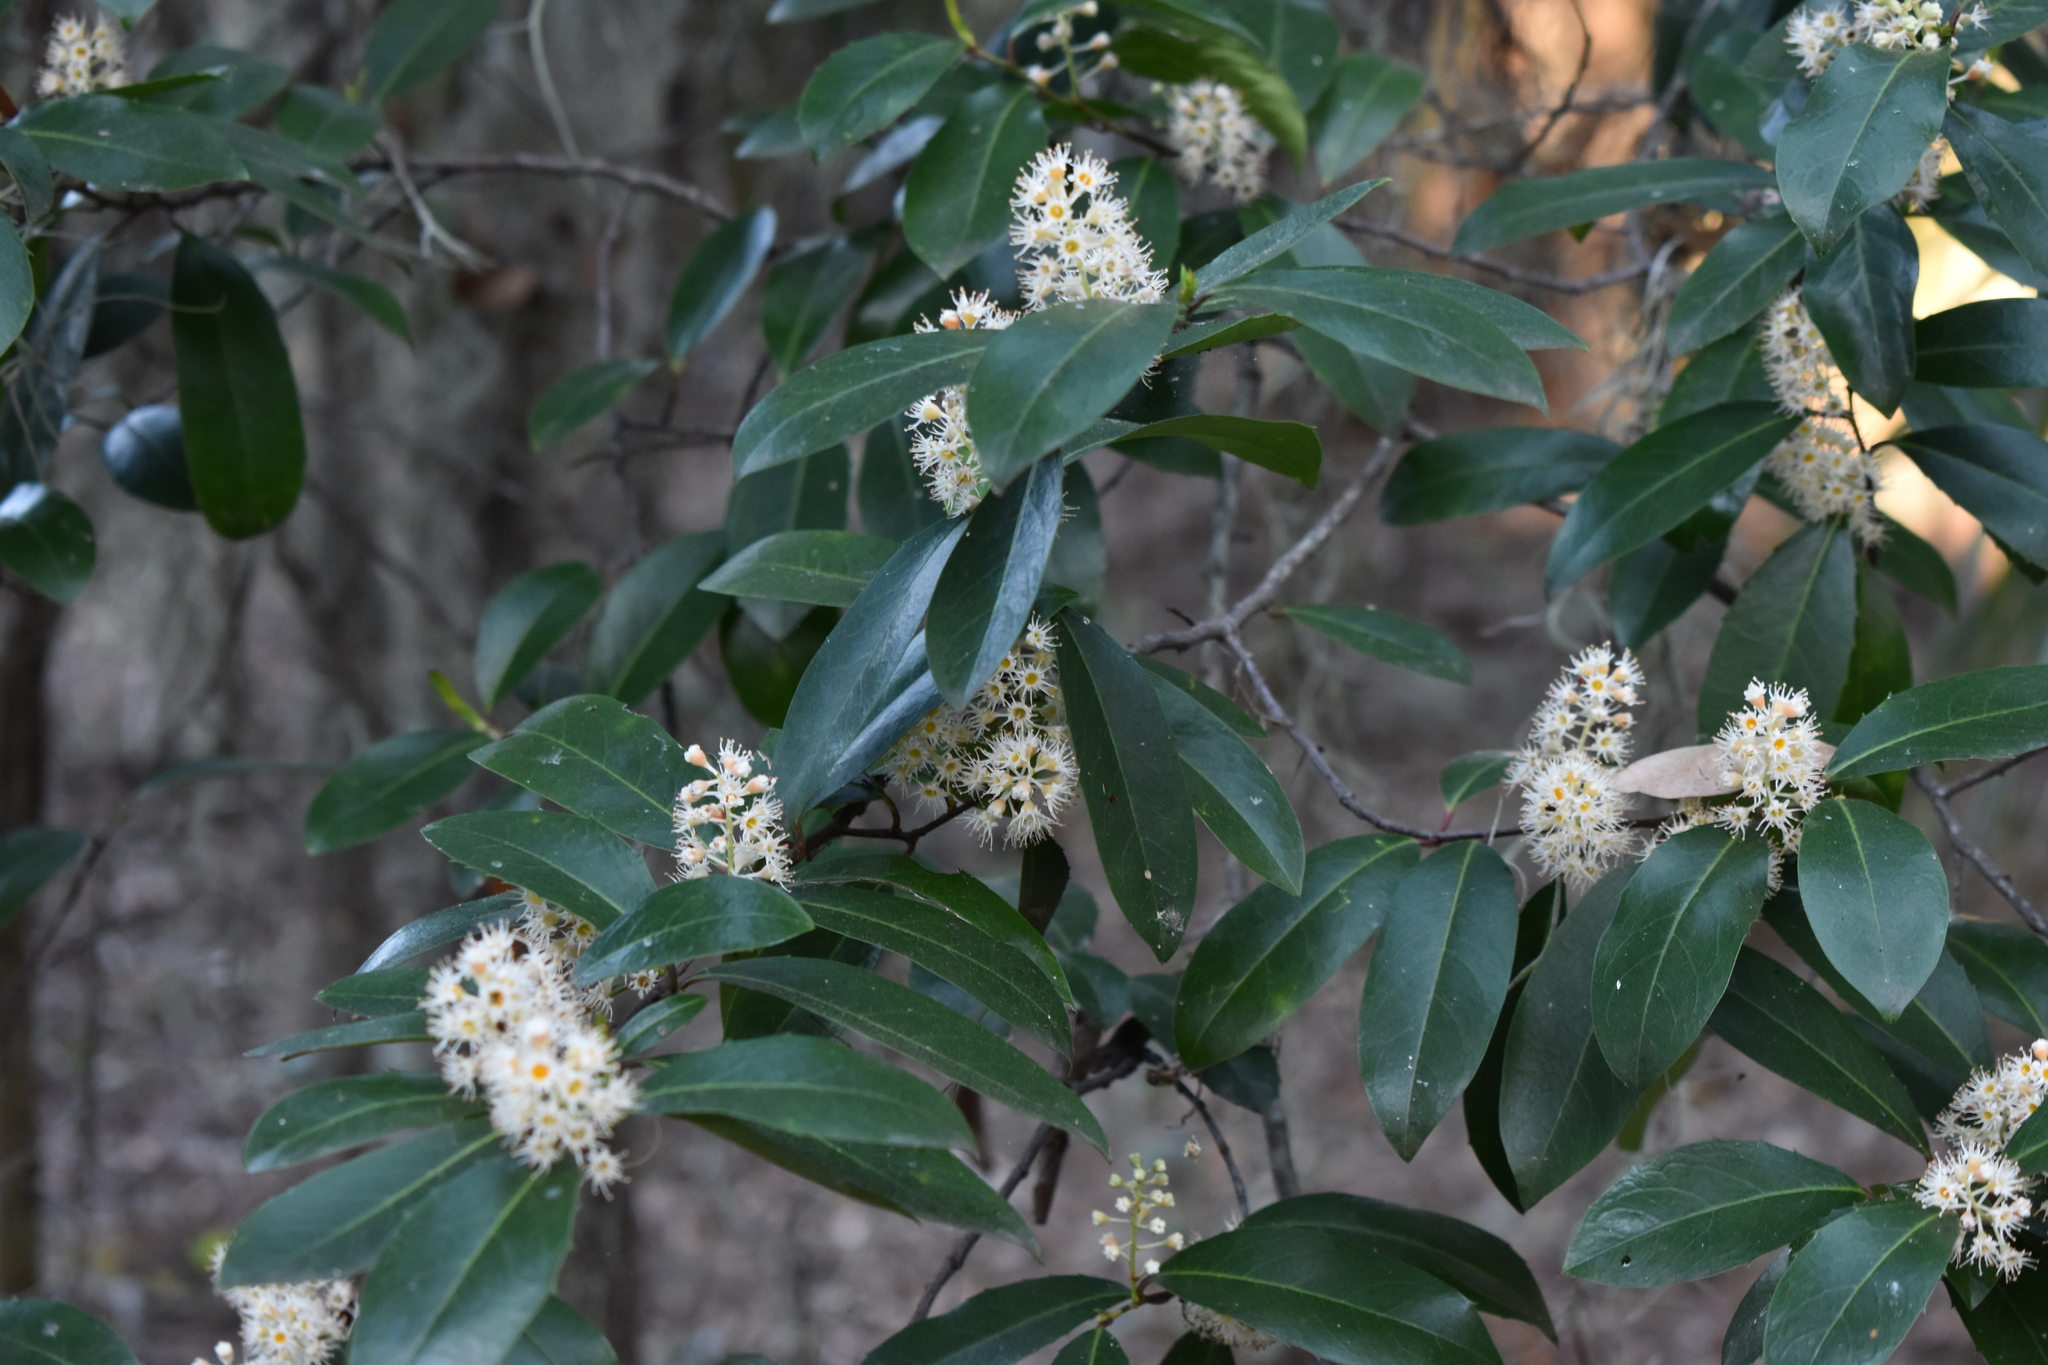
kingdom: Plantae
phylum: Tracheophyta
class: Magnoliopsida
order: Rosales
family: Rosaceae
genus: Prunus
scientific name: Prunus caroliniana
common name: Carolina laurel cherry
